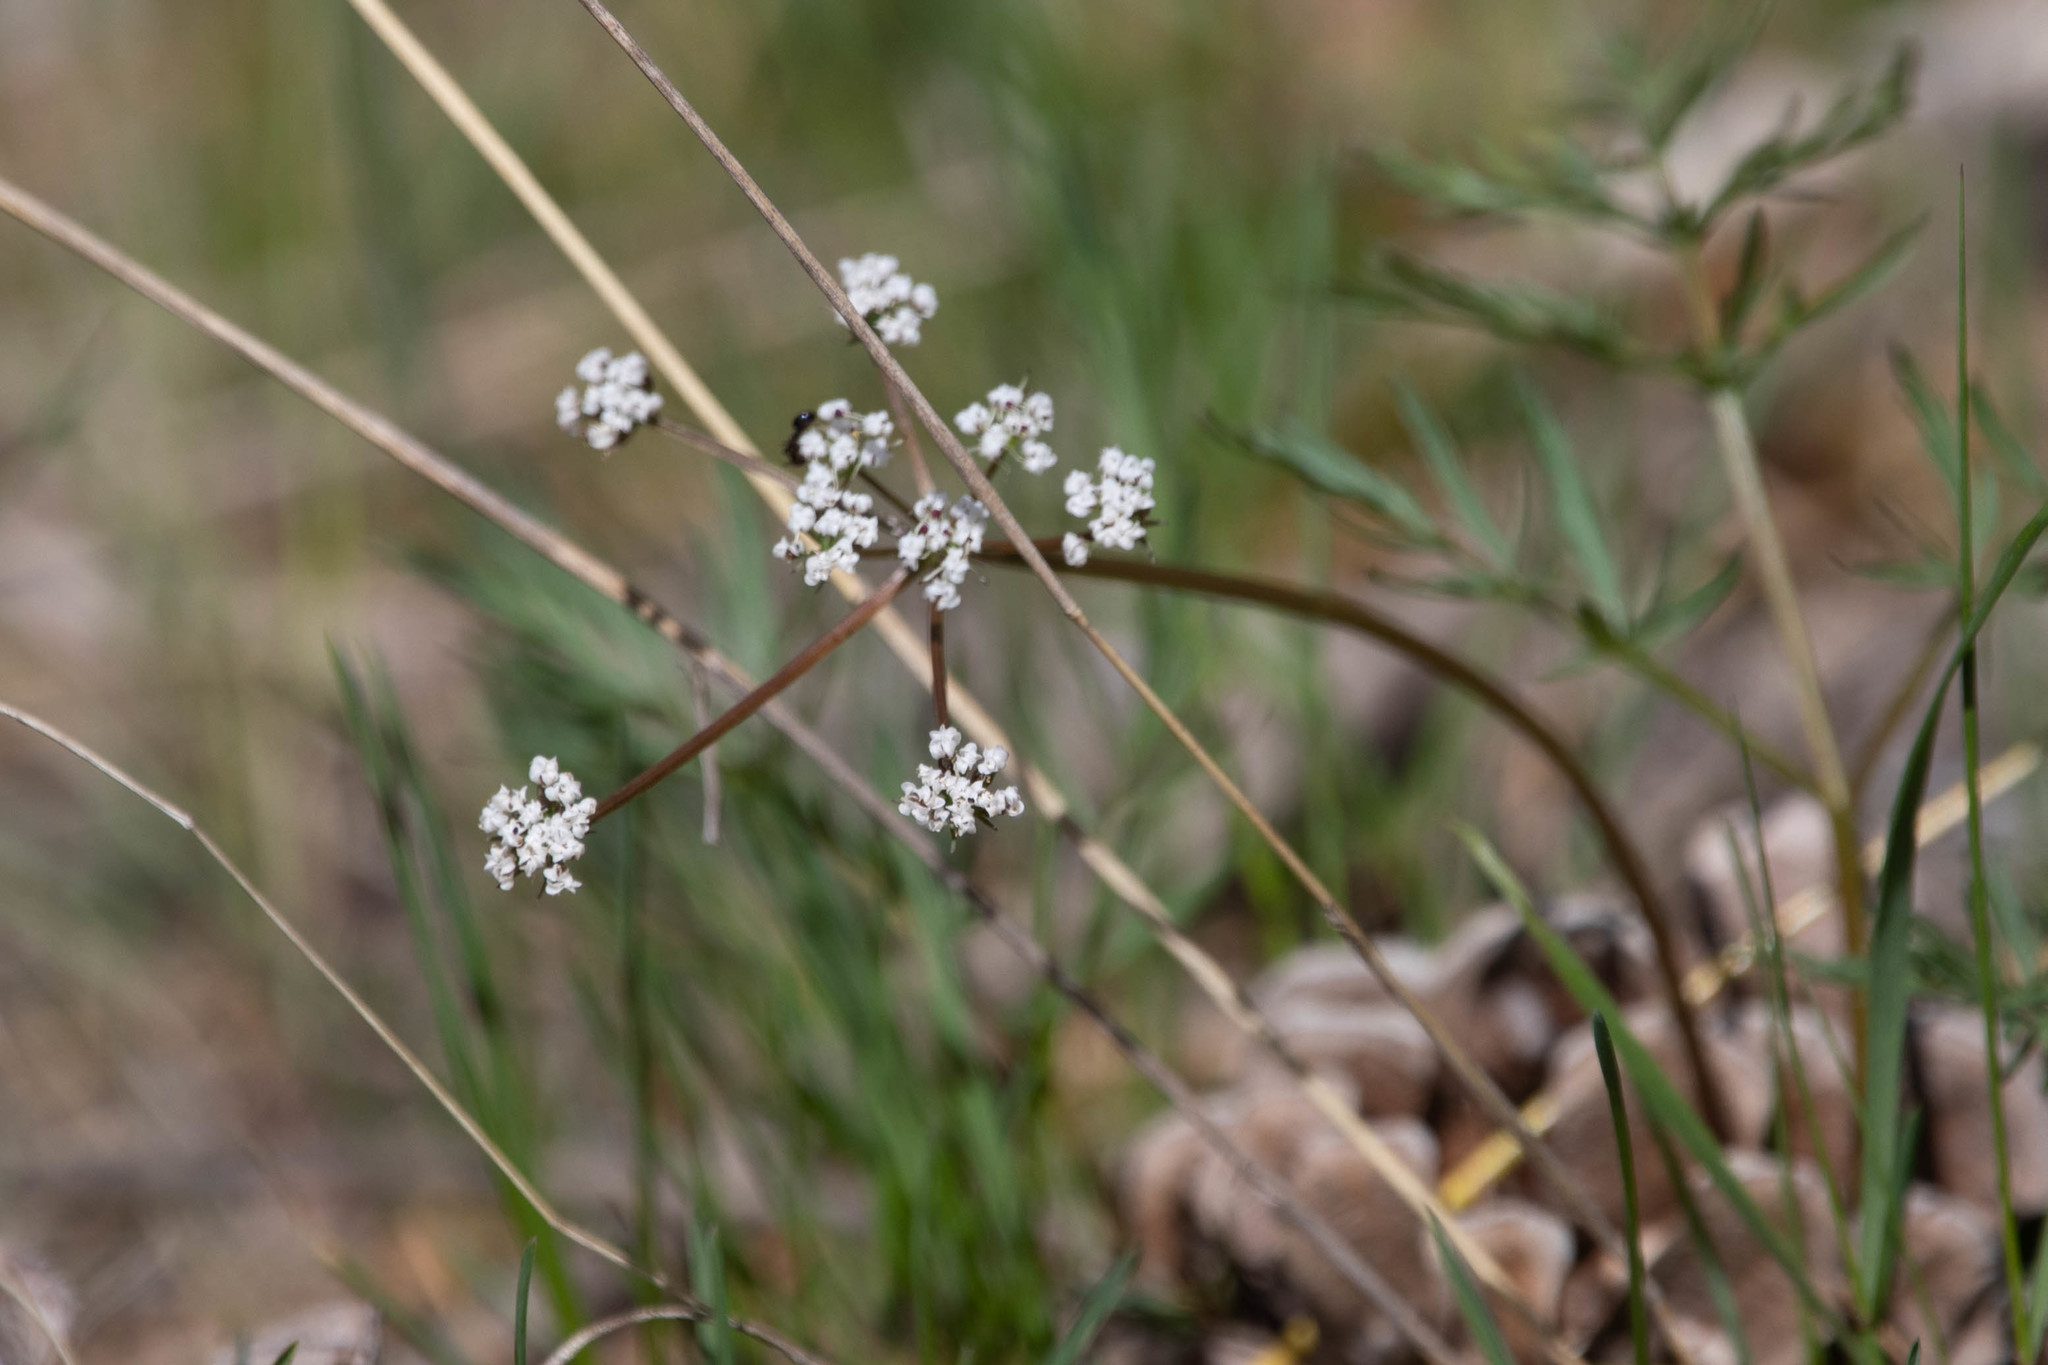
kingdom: Plantae
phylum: Tracheophyta
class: Magnoliopsida
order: Apiales
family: Apiaceae
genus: Lomatium
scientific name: Lomatium geyeri
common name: Geyer's biscuitroot
